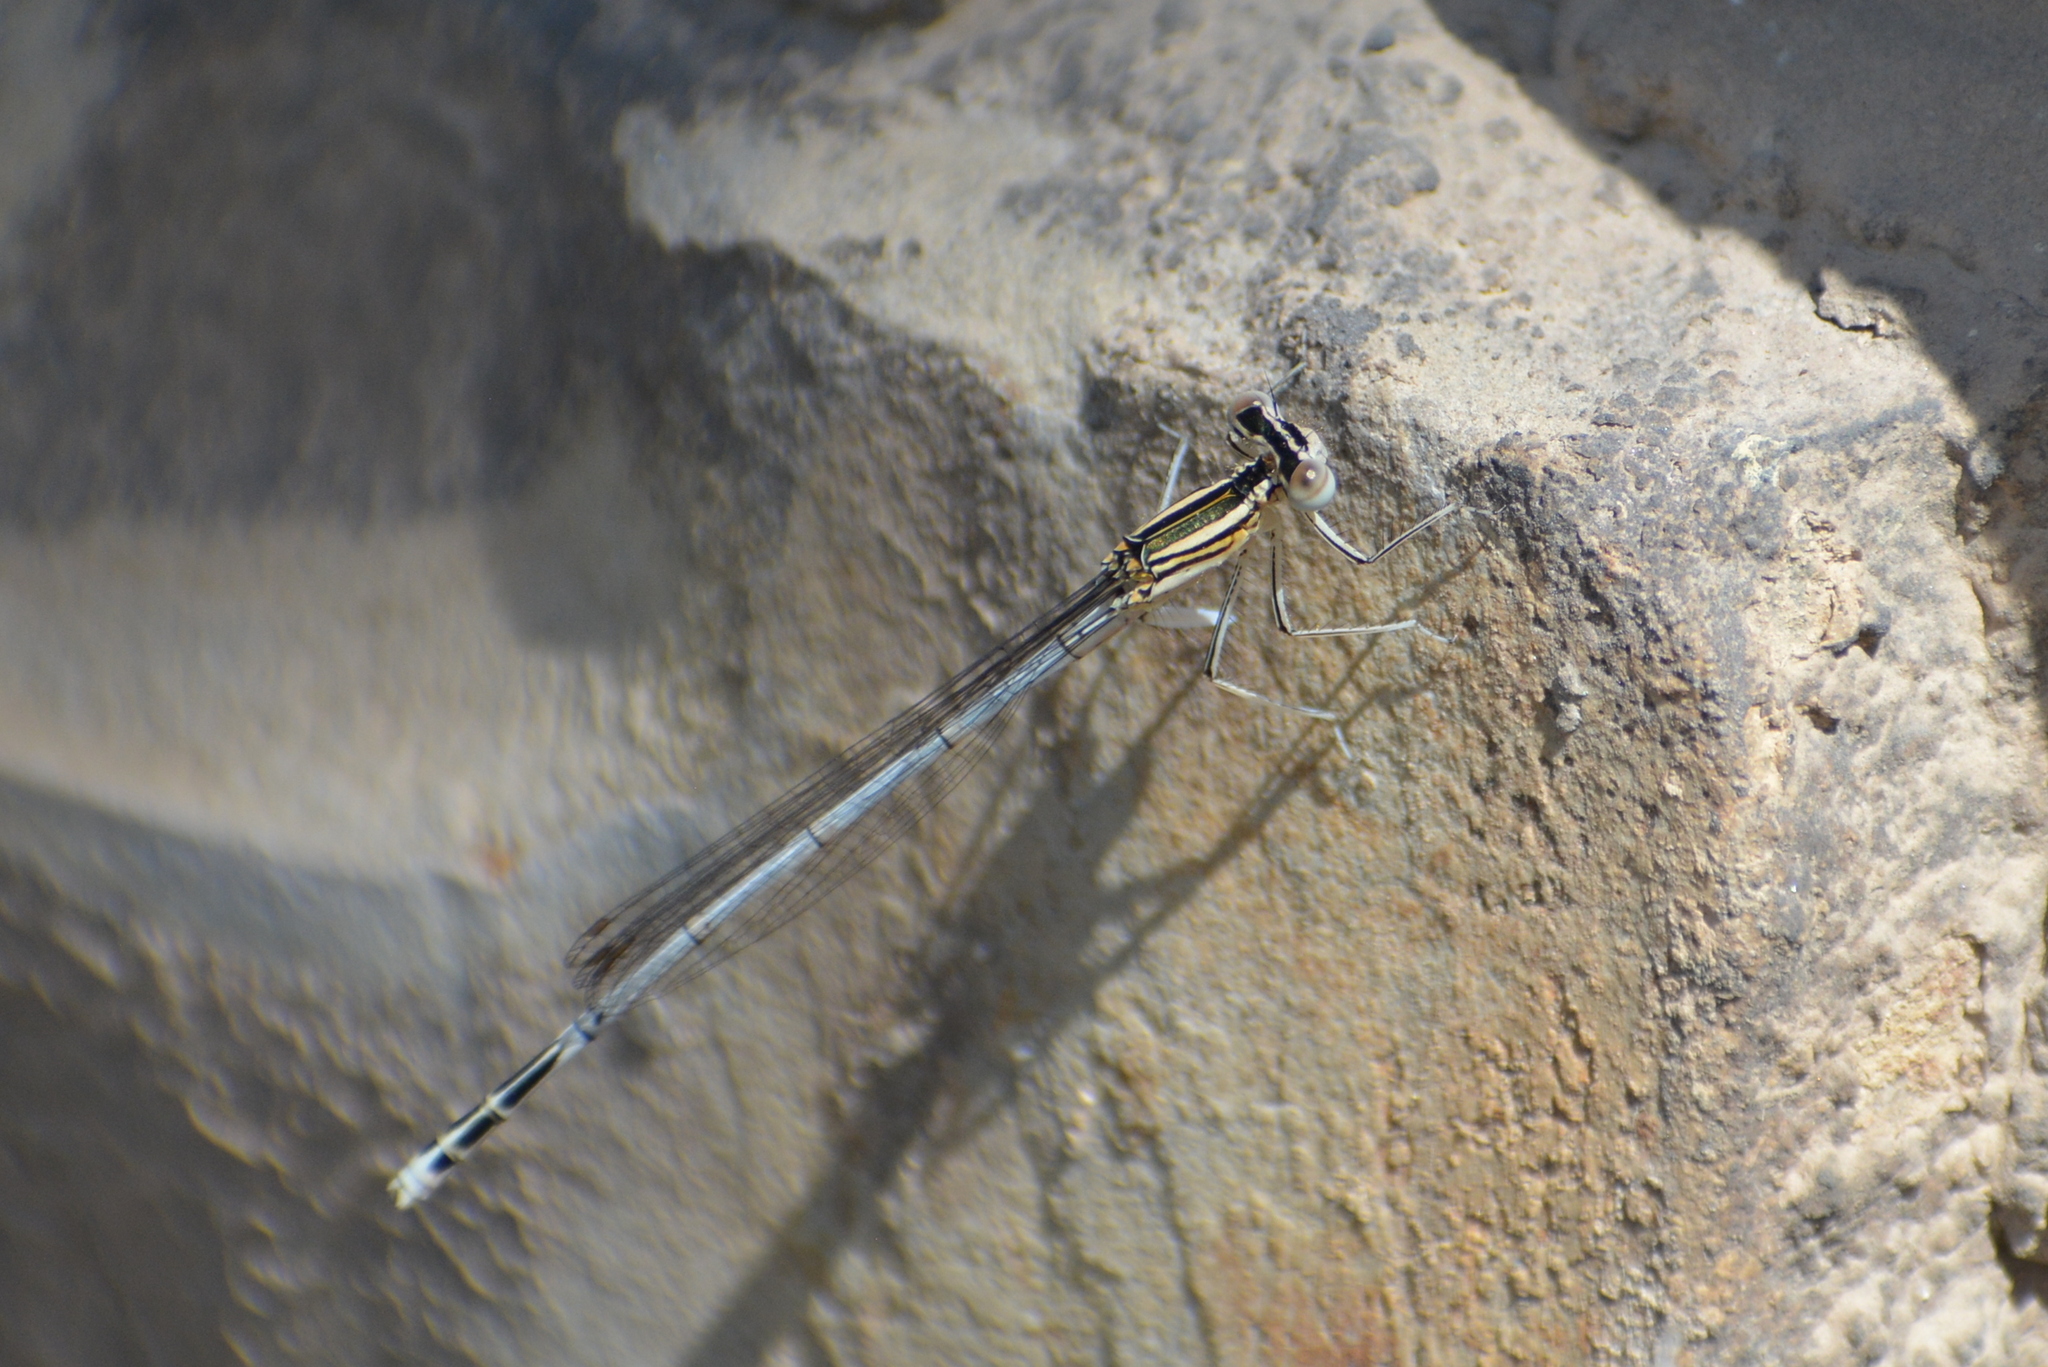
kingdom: Animalia
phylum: Arthropoda
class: Insecta
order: Odonata
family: Platycnemididae
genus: Platycnemis
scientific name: Platycnemis pennipes
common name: White-legged damselfly
